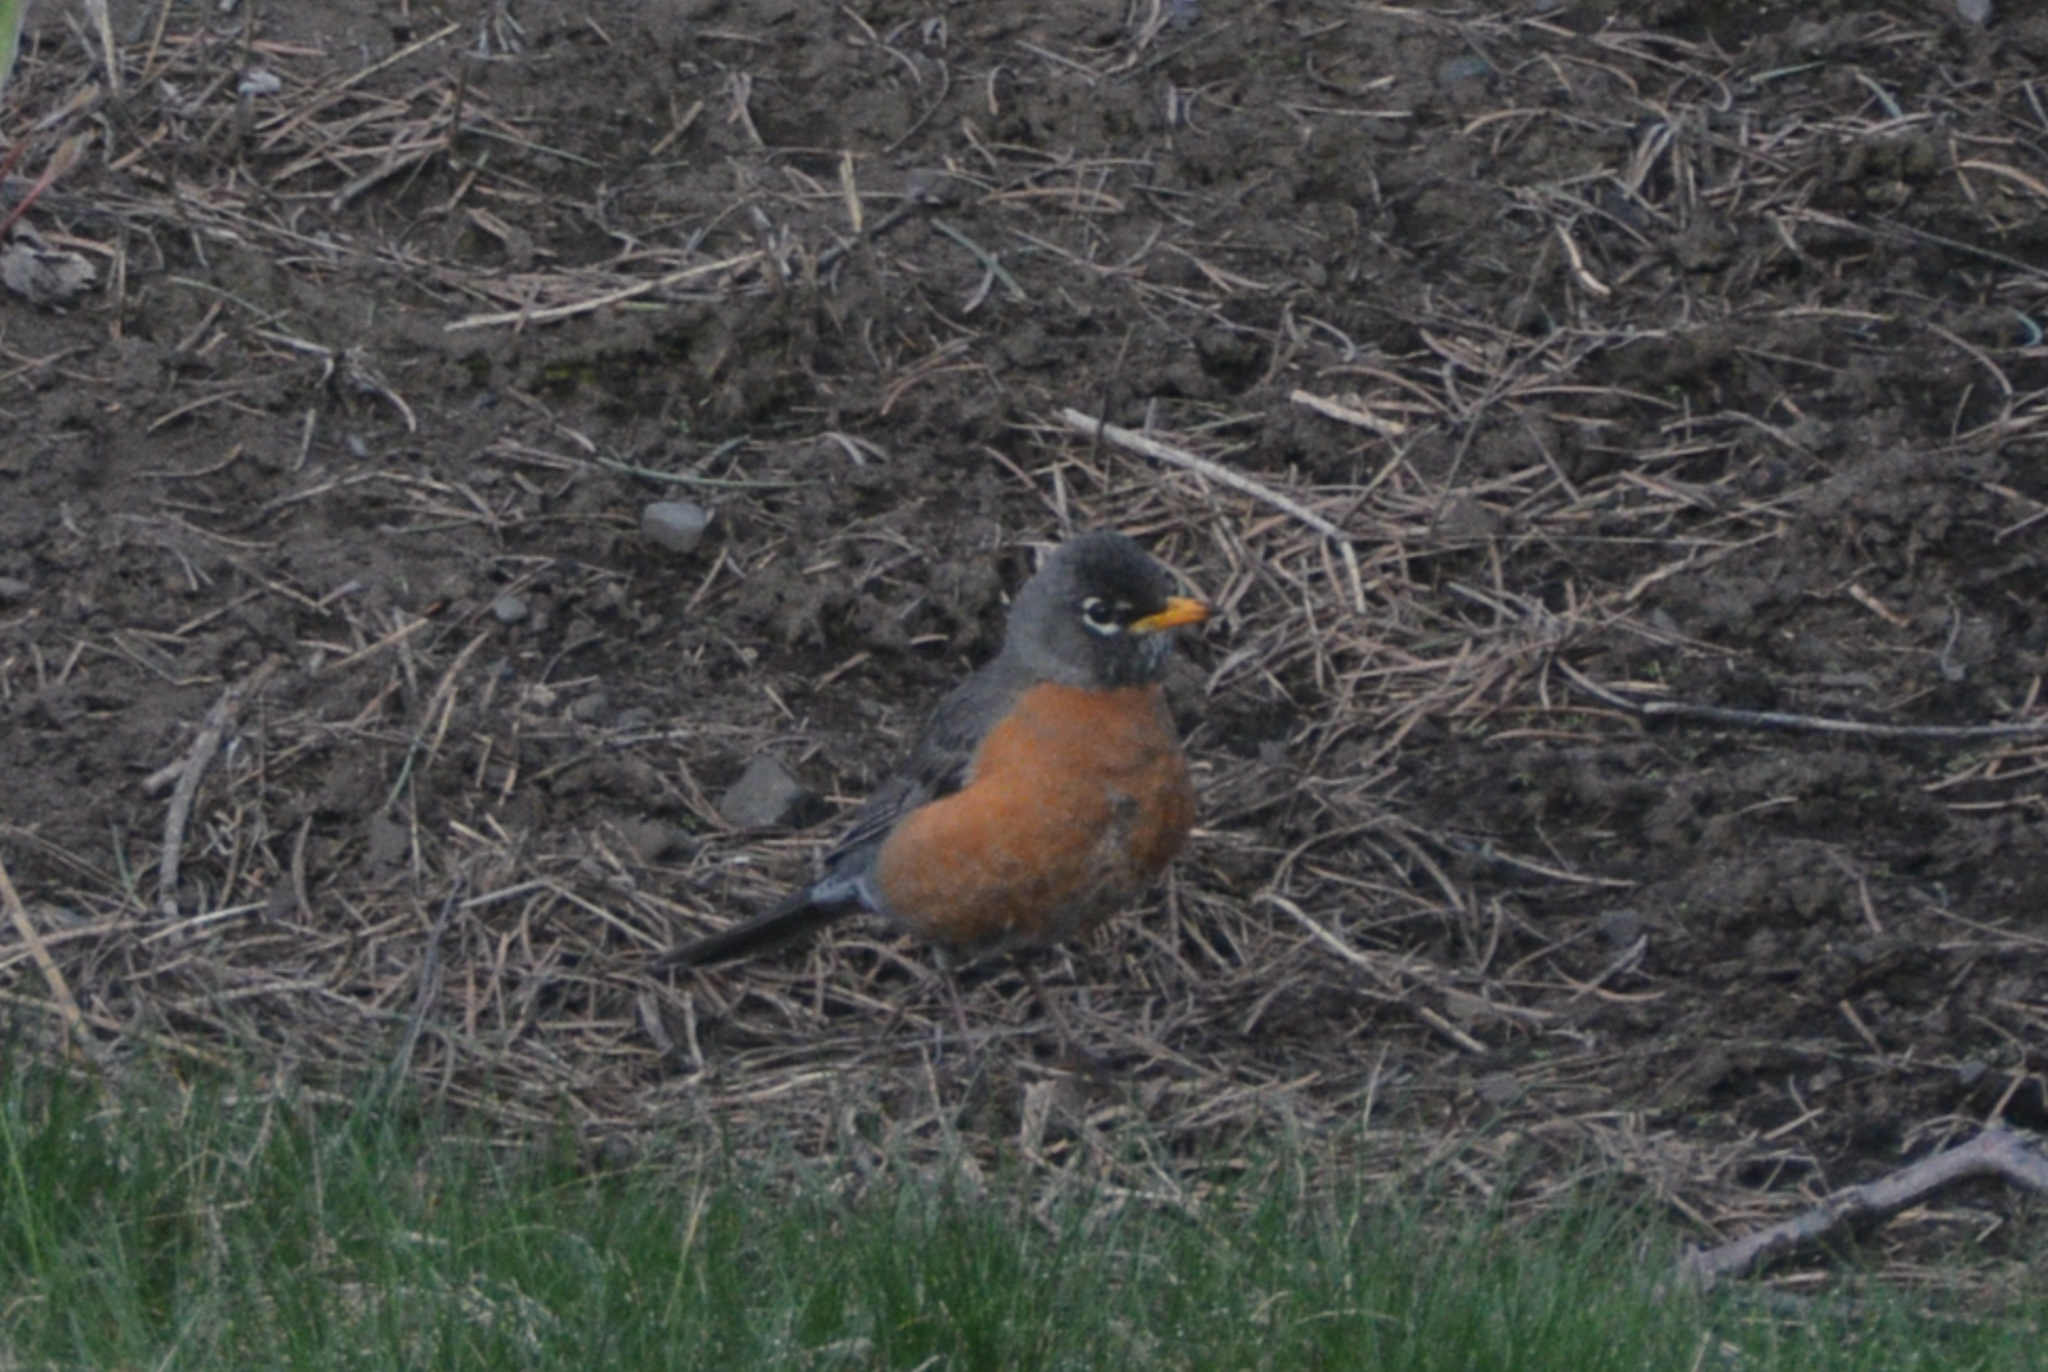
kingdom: Animalia
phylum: Chordata
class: Aves
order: Passeriformes
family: Turdidae
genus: Turdus
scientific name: Turdus migratorius
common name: American robin
